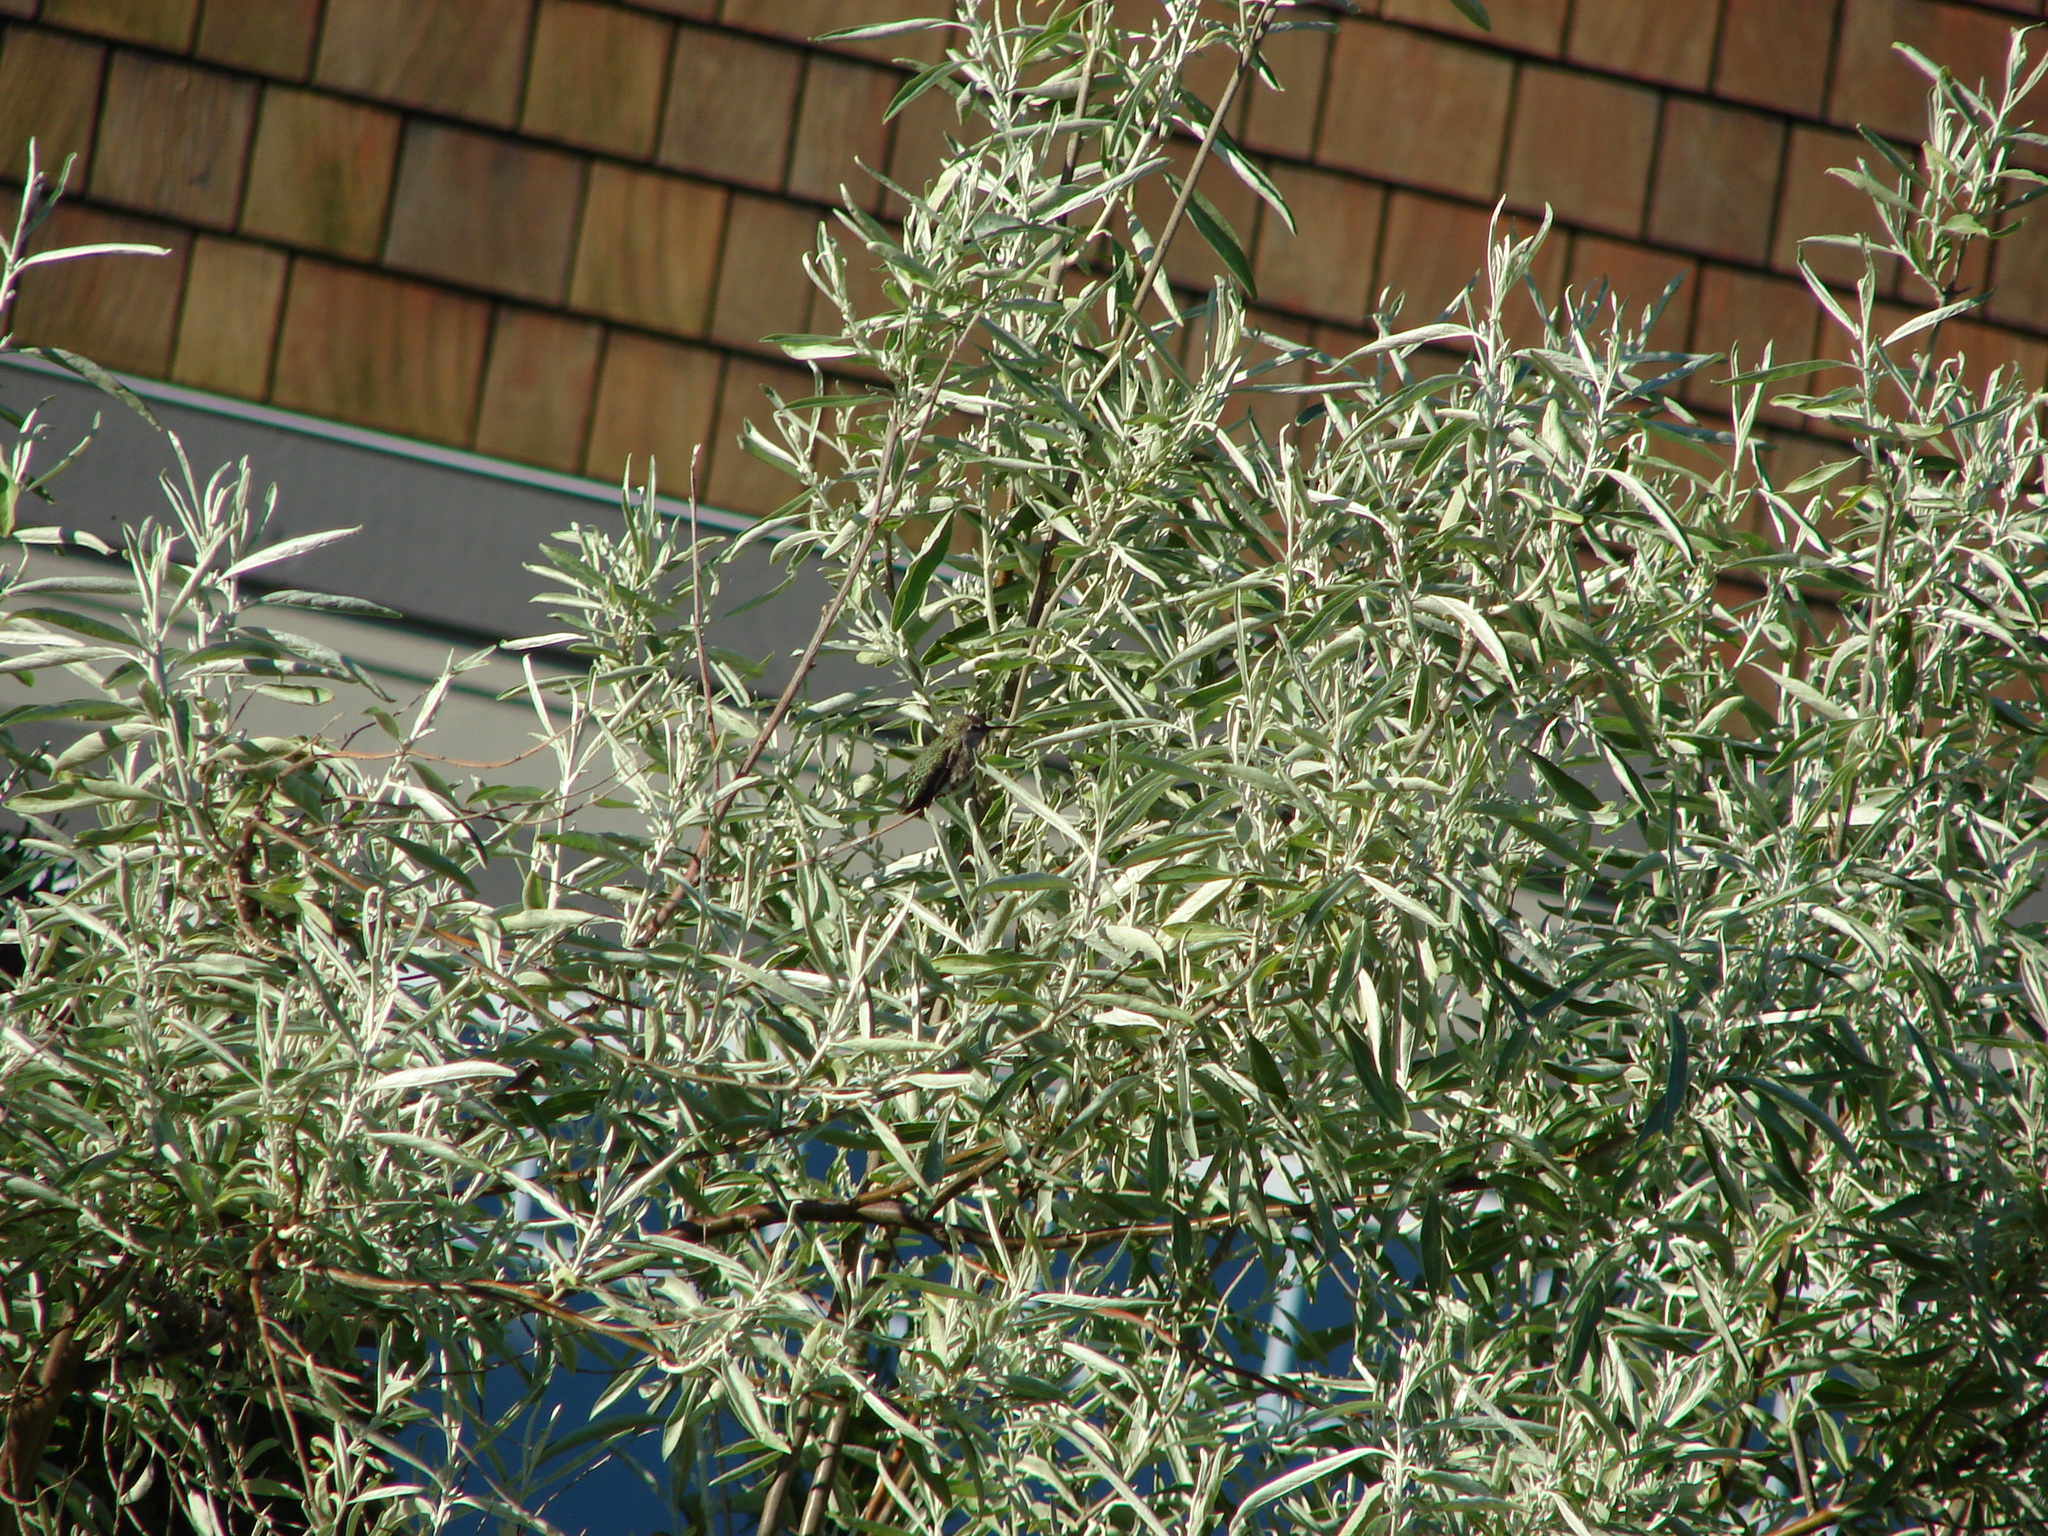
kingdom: Animalia
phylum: Chordata
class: Aves
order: Apodiformes
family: Trochilidae
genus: Calypte
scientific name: Calypte anna
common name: Anna's hummingbird
